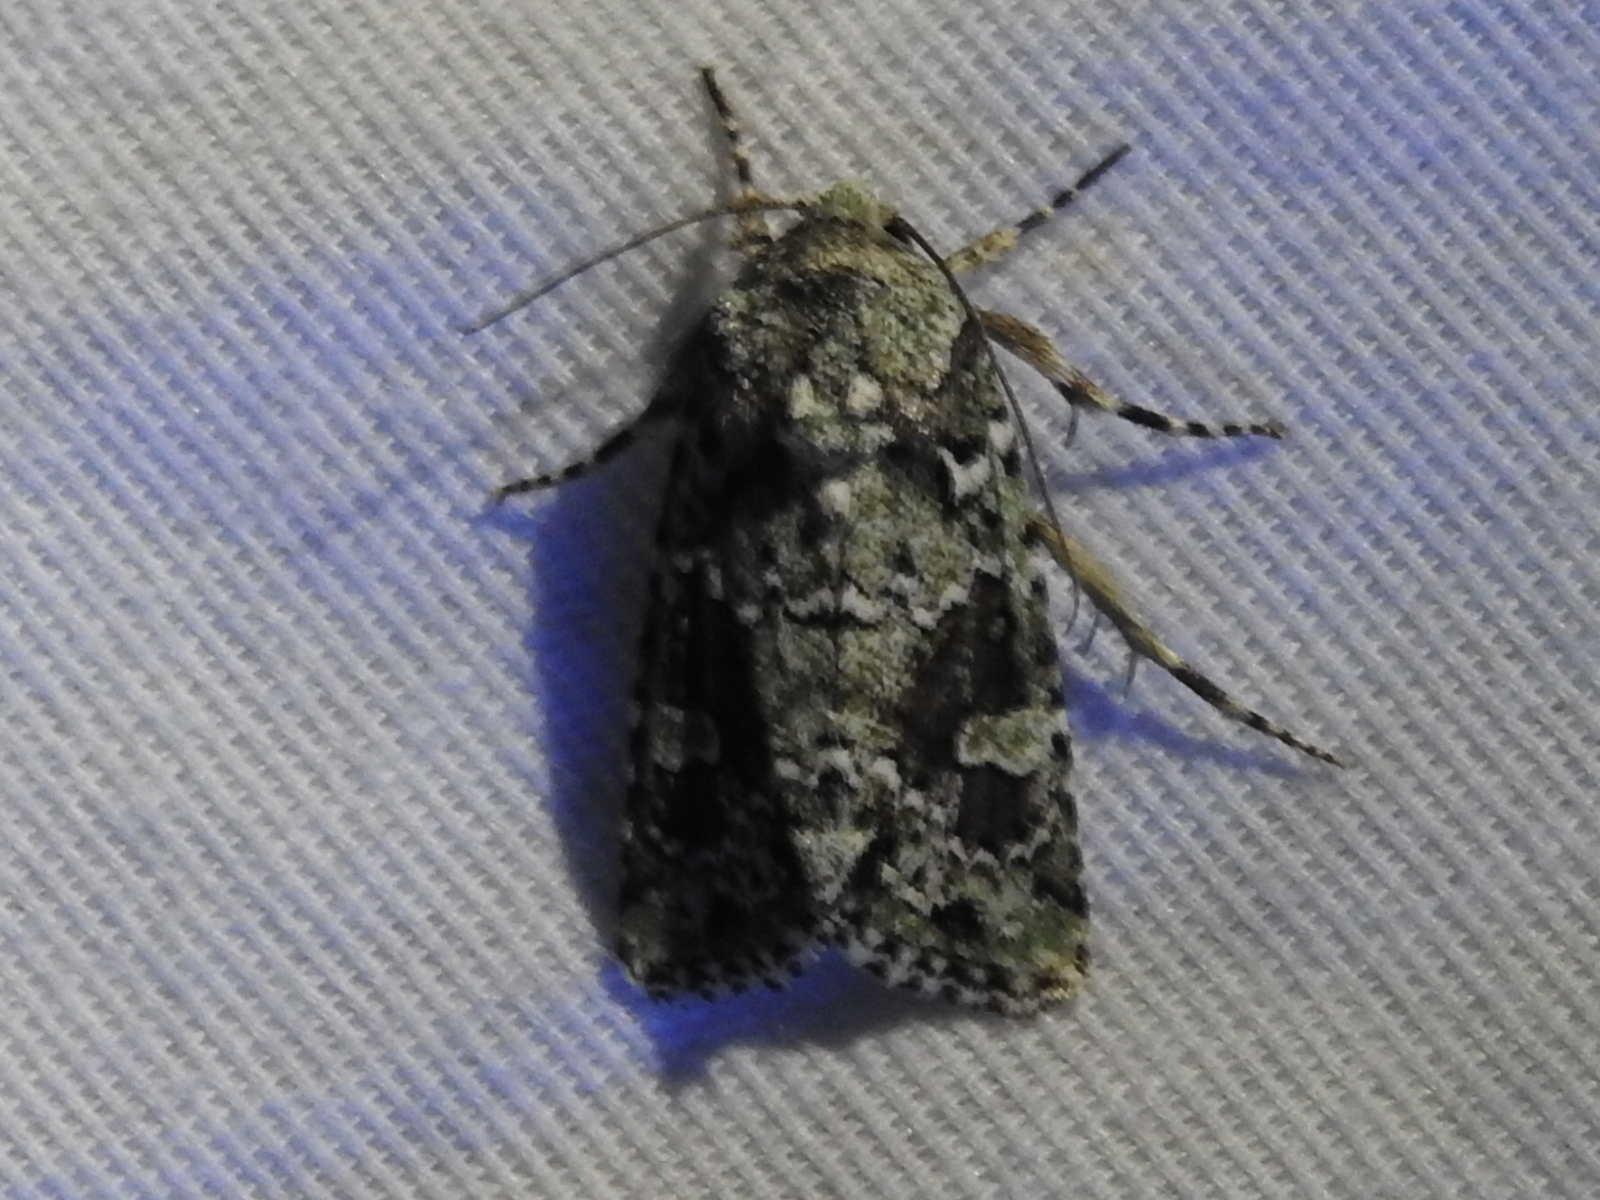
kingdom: Animalia
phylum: Arthropoda
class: Insecta
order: Lepidoptera
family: Noctuidae
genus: Lacinipolia
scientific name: Lacinipolia laudabilis
